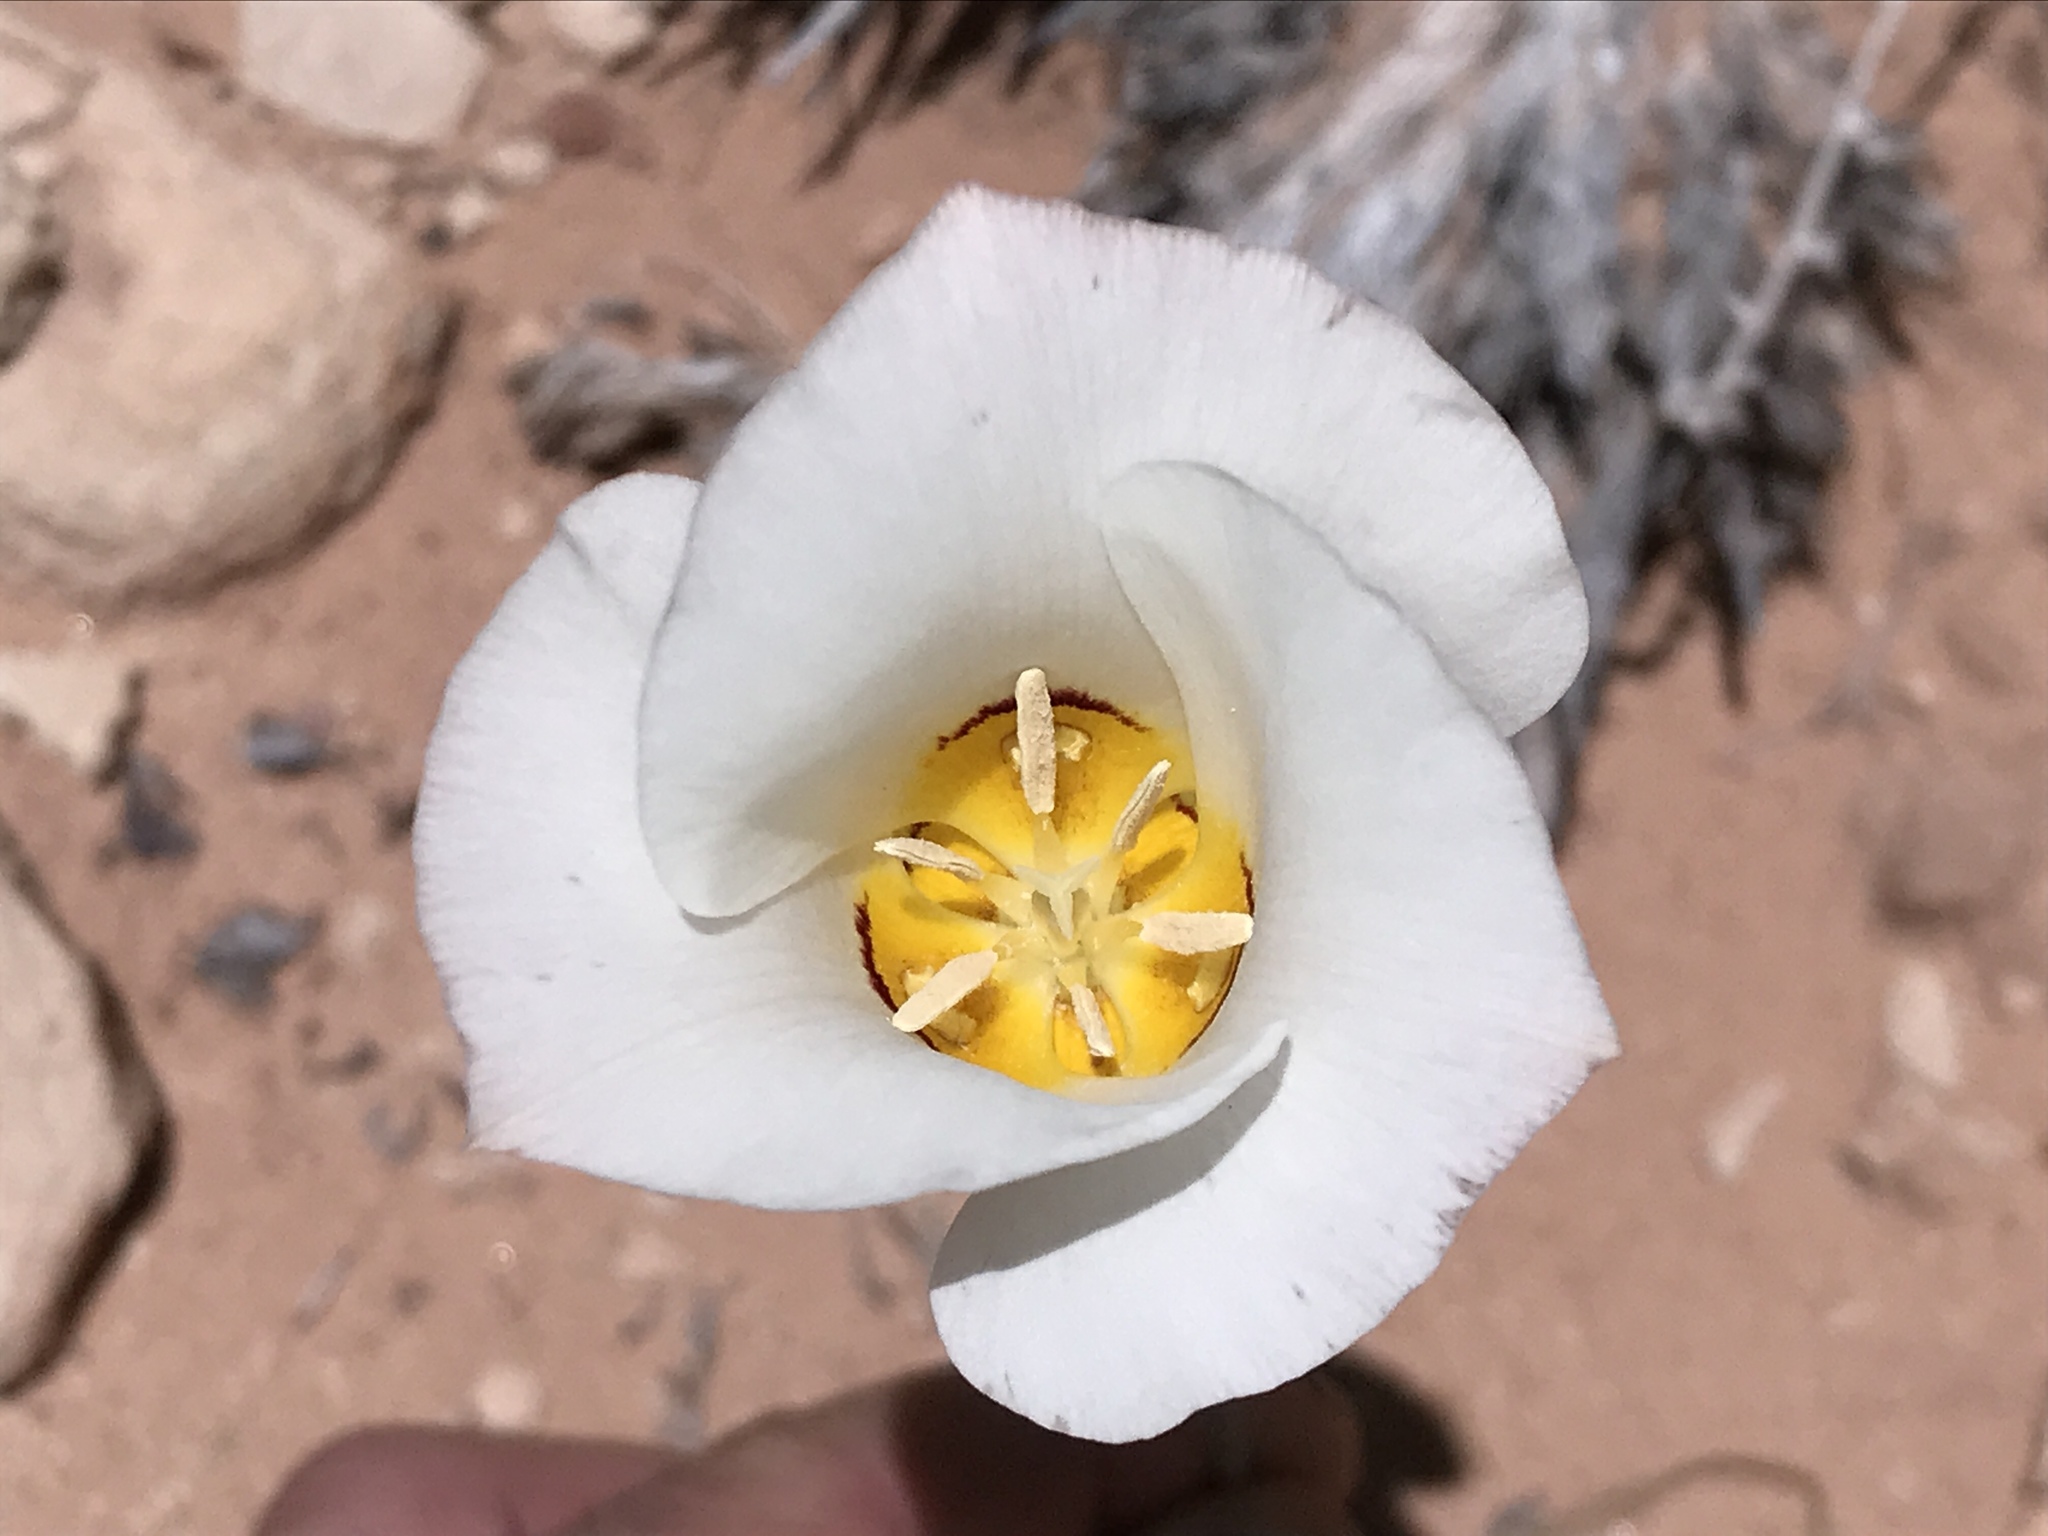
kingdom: Plantae
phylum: Tracheophyta
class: Liliopsida
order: Liliales
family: Liliaceae
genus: Calochortus
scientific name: Calochortus nuttallii
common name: Sego-lily
